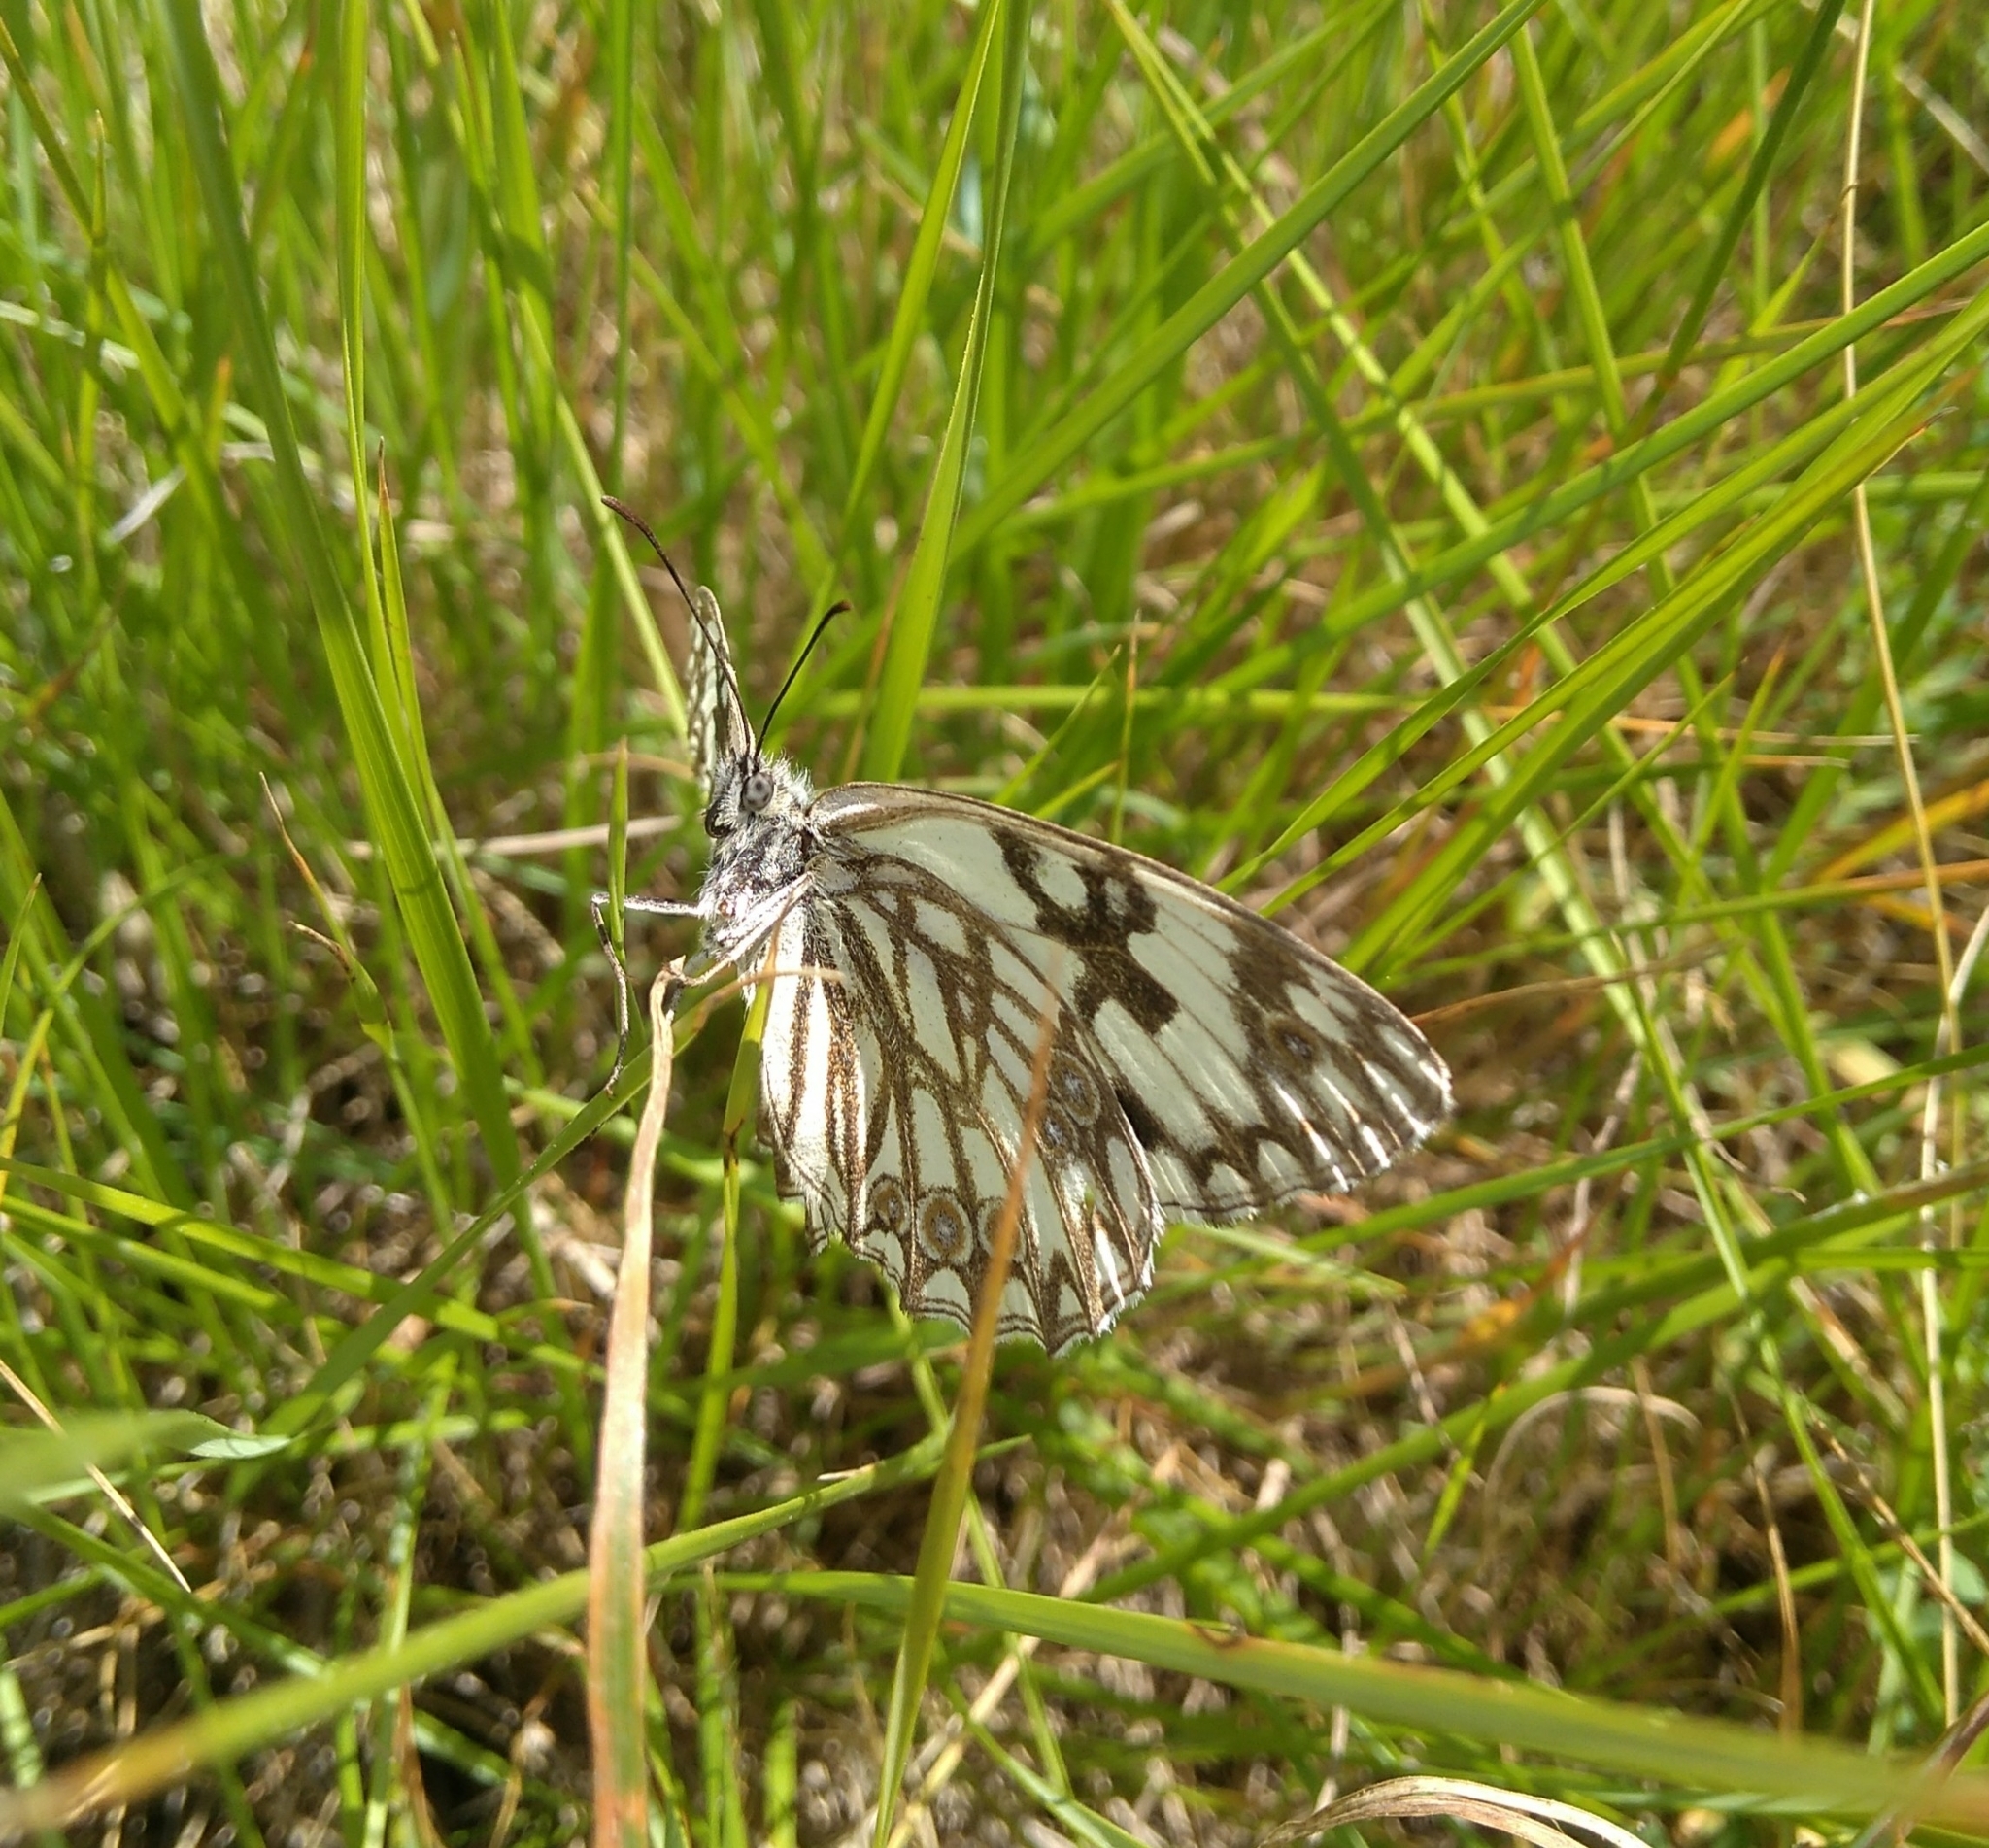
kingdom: Animalia
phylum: Arthropoda
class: Insecta
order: Lepidoptera
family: Nymphalidae
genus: Melanargia
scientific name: Melanargia occitanica
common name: Western marbled white
